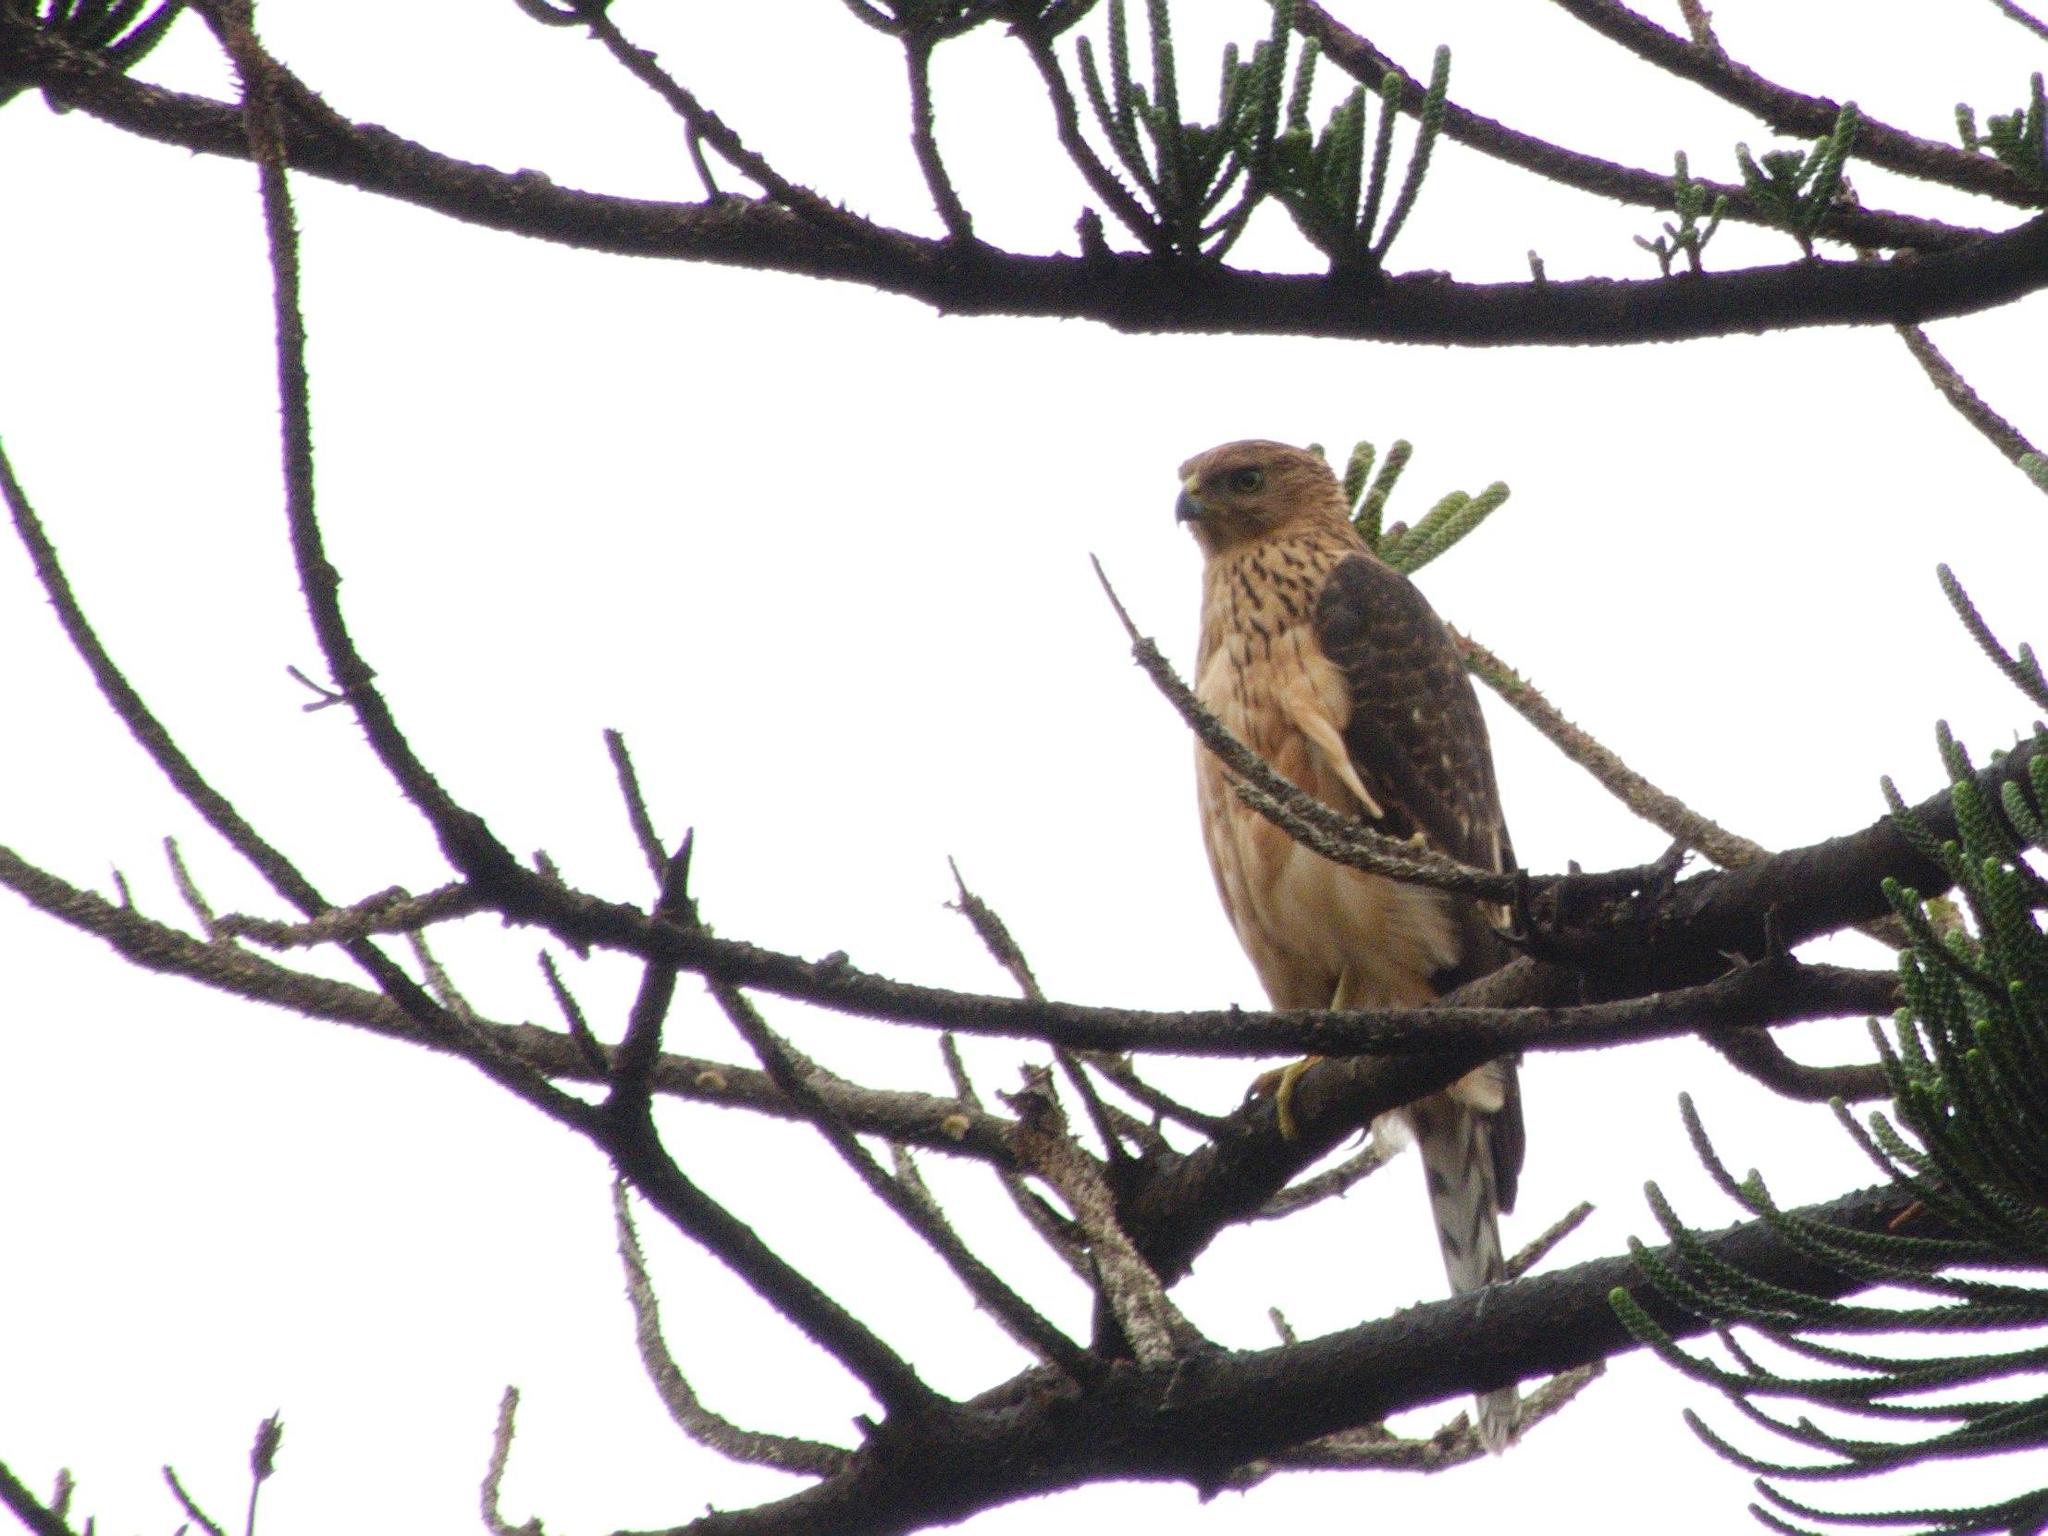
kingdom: Animalia
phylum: Chordata
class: Aves
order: Accipitriformes
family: Accipitridae
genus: Accipiter
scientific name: Accipiter melanoleucus
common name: Black sparrowhawk
